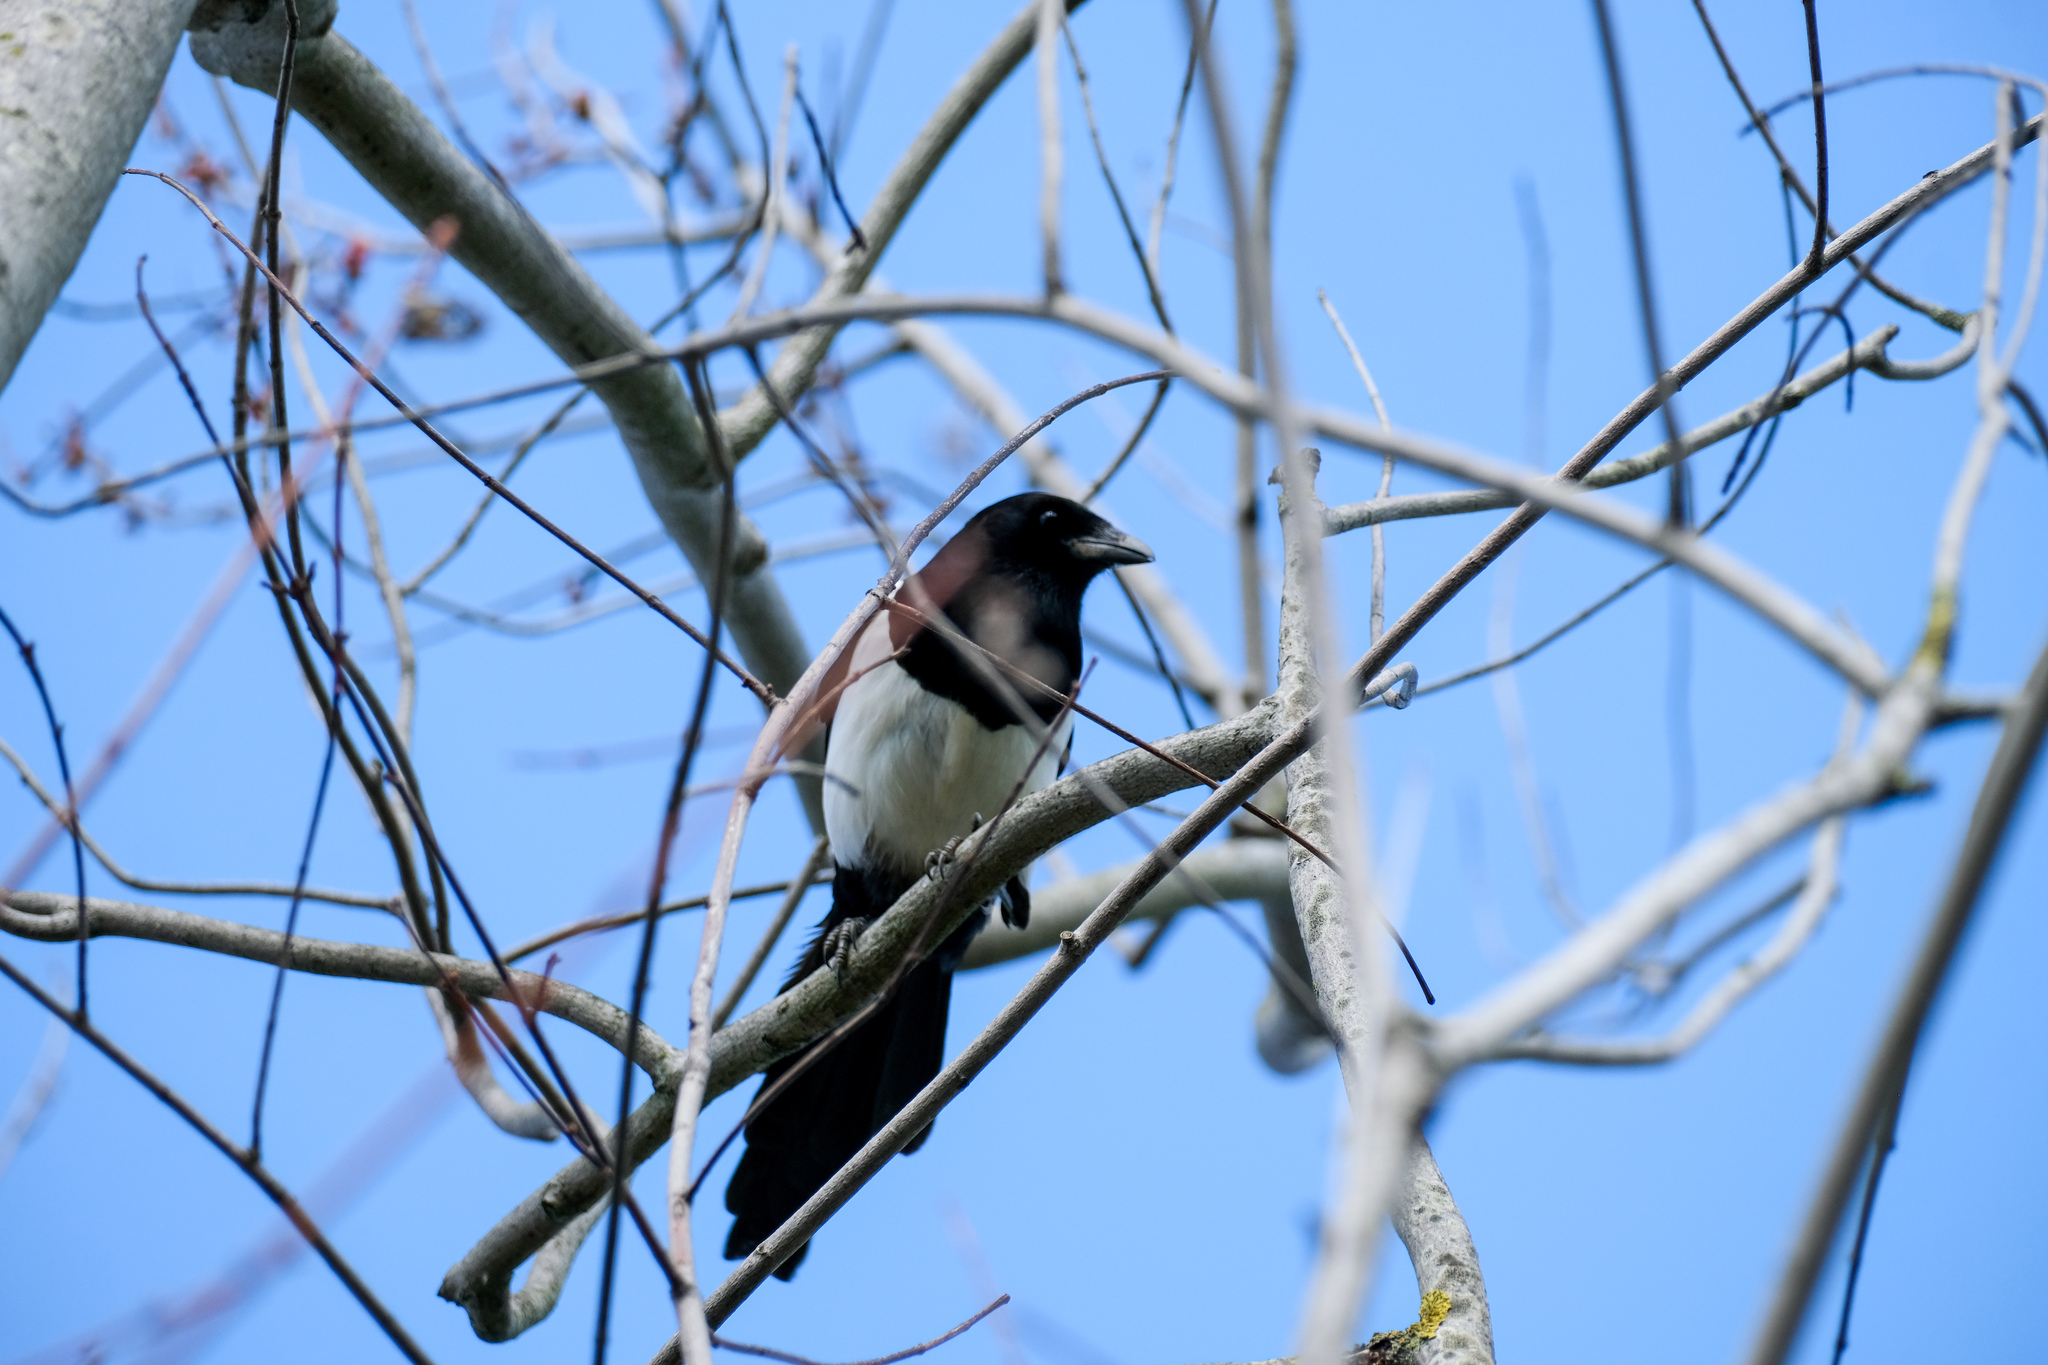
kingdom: Animalia
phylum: Chordata
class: Aves
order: Passeriformes
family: Corvidae
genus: Pica
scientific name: Pica pica
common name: Eurasian magpie
